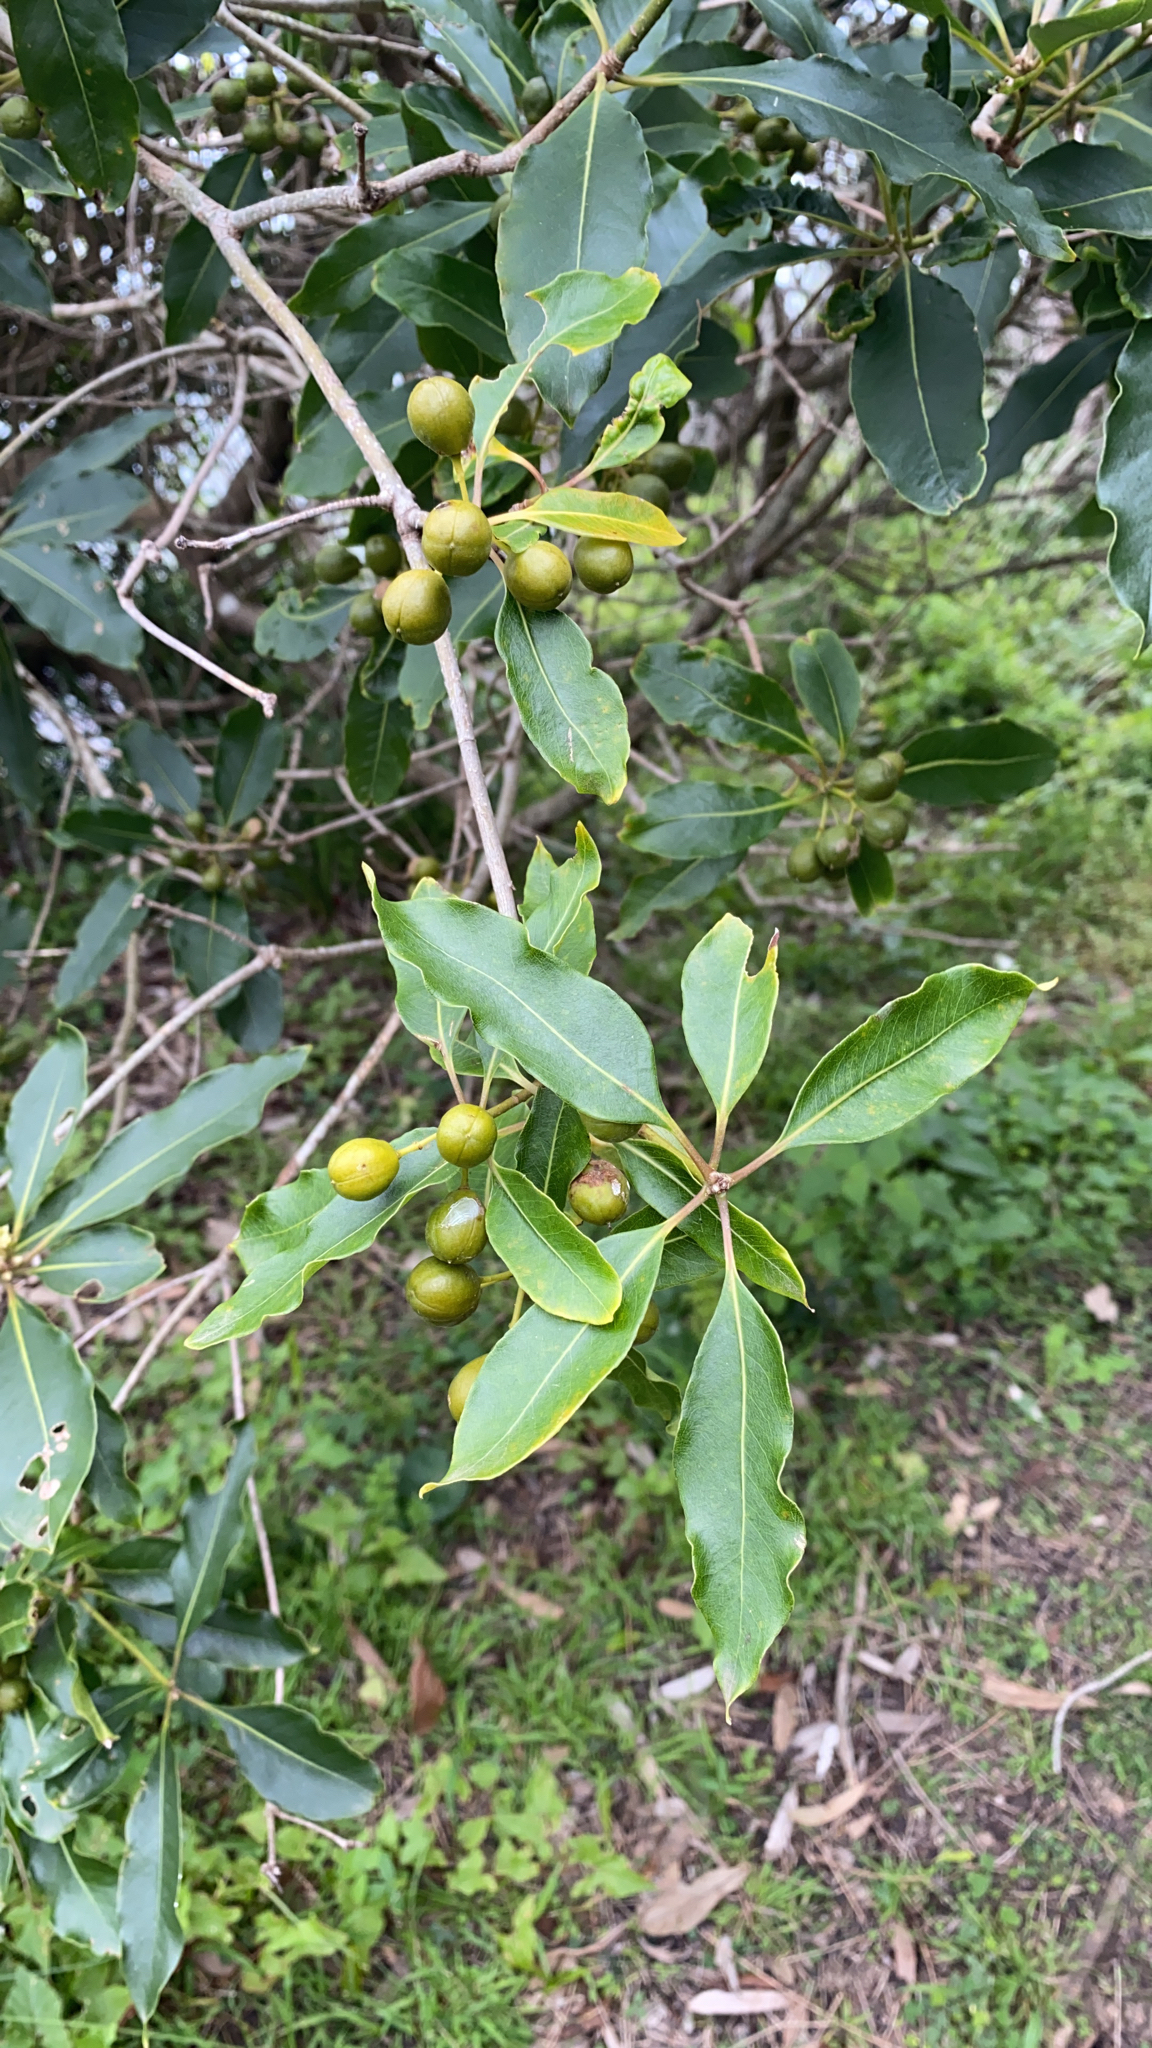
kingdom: Plantae
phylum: Tracheophyta
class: Magnoliopsida
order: Apiales
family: Pittosporaceae
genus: Pittosporum
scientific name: Pittosporum undulatum
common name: Australian cheesewood
